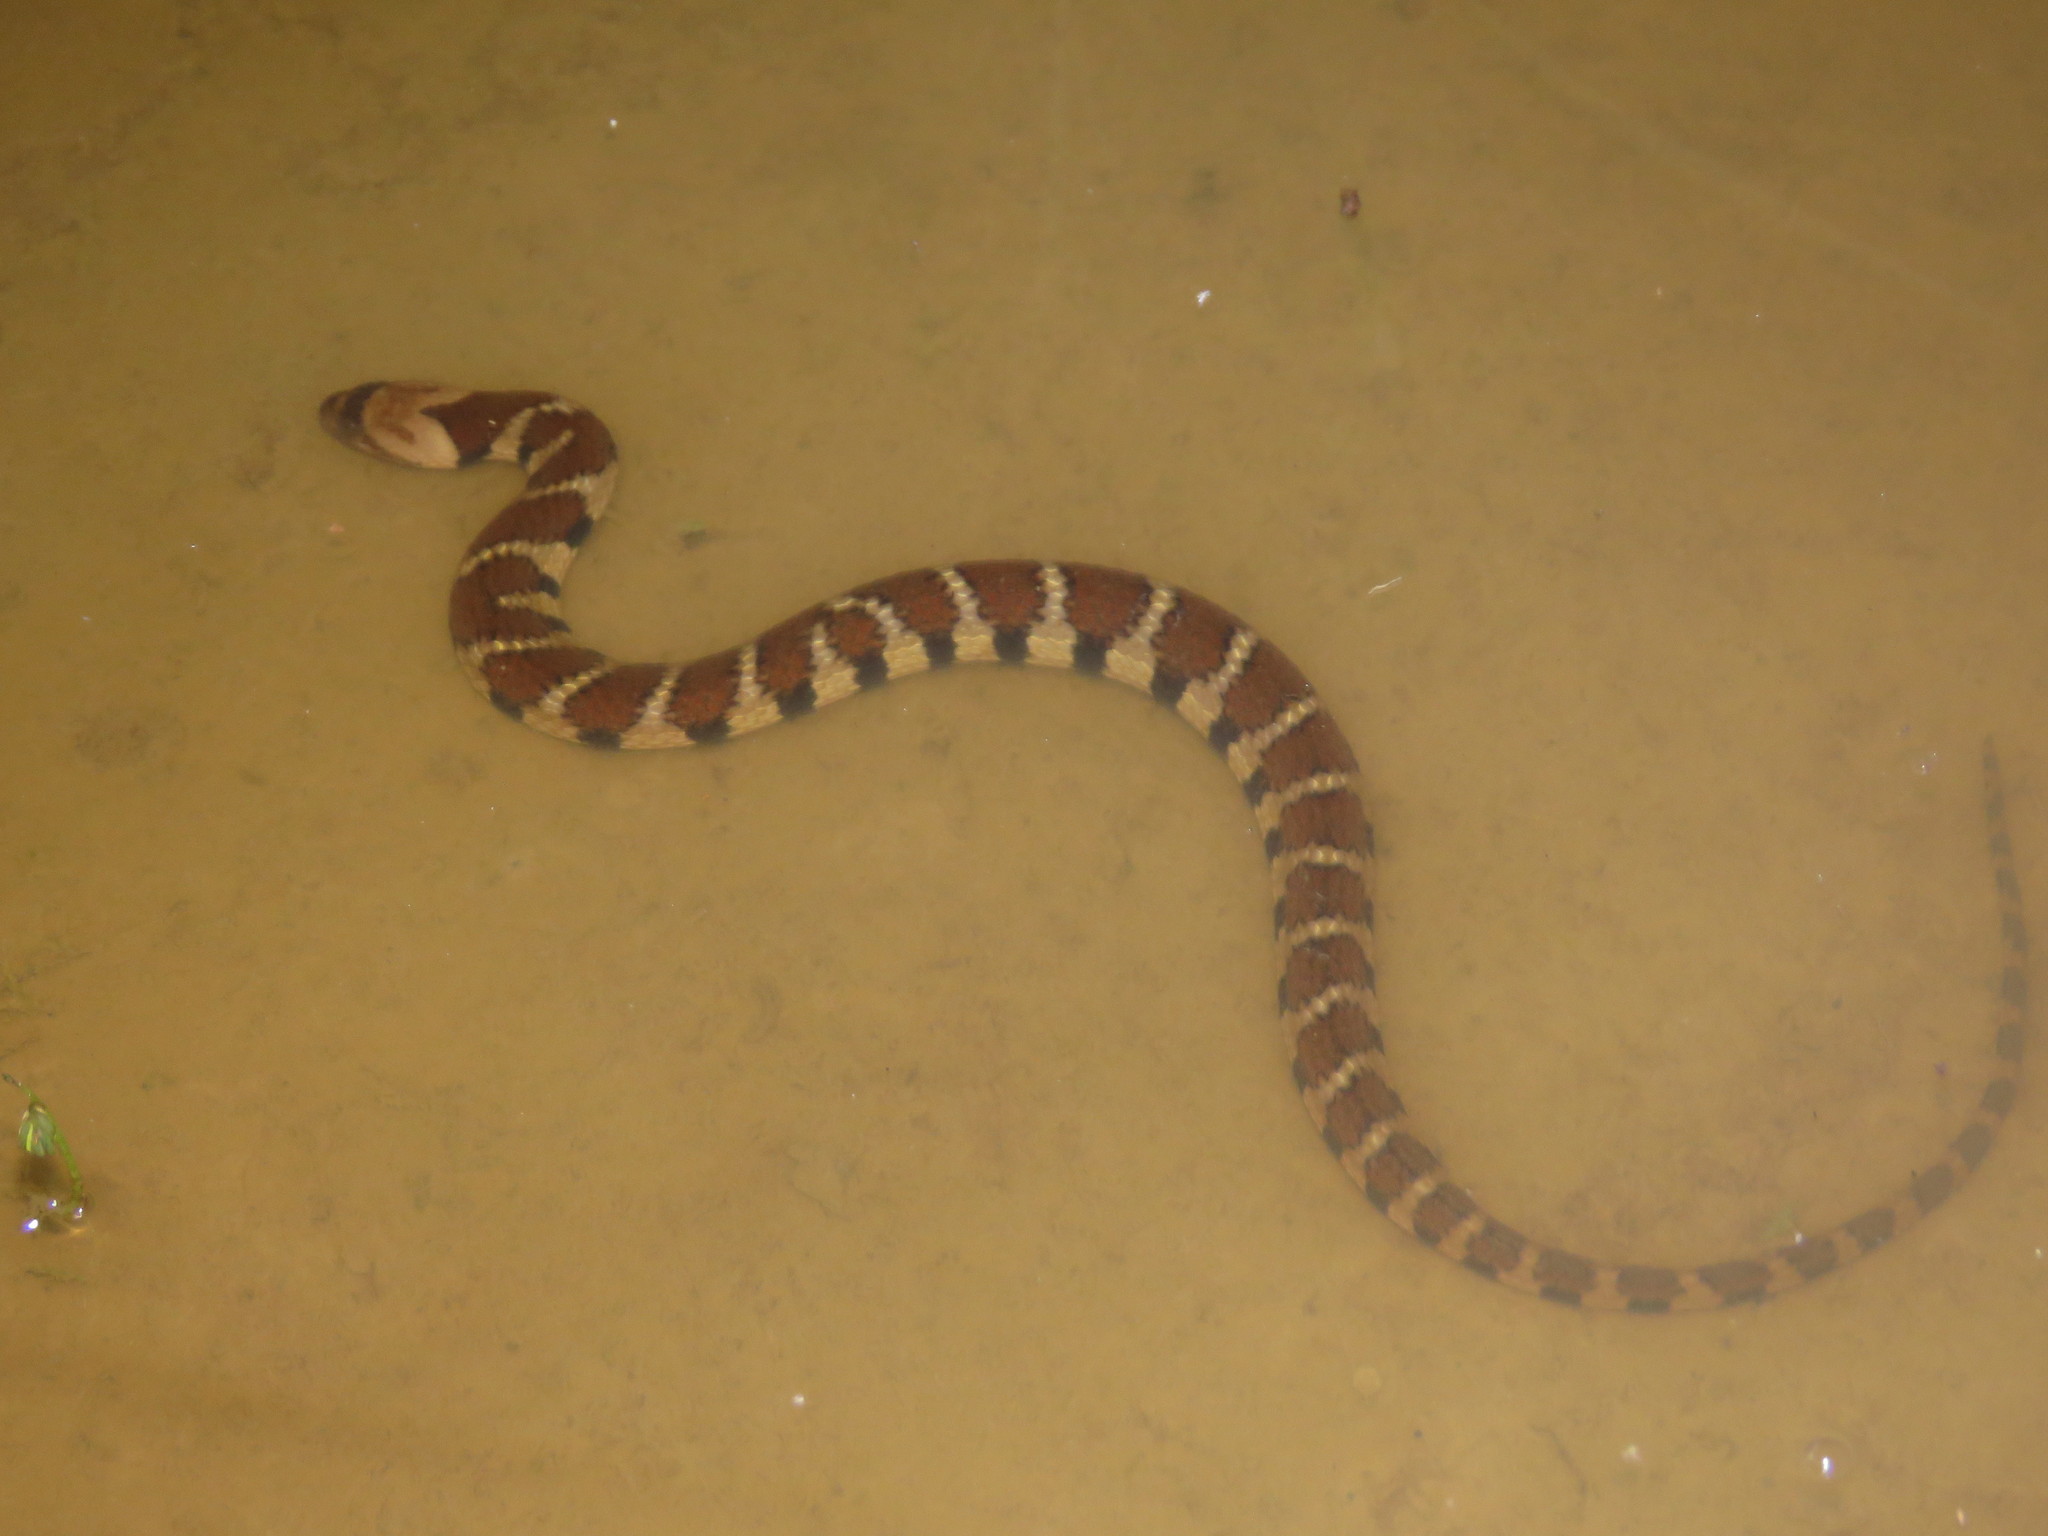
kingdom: Animalia
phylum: Chordata
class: Squamata
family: Colubridae
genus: Helicops
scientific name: Helicops angulatus
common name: Mountain keelback
